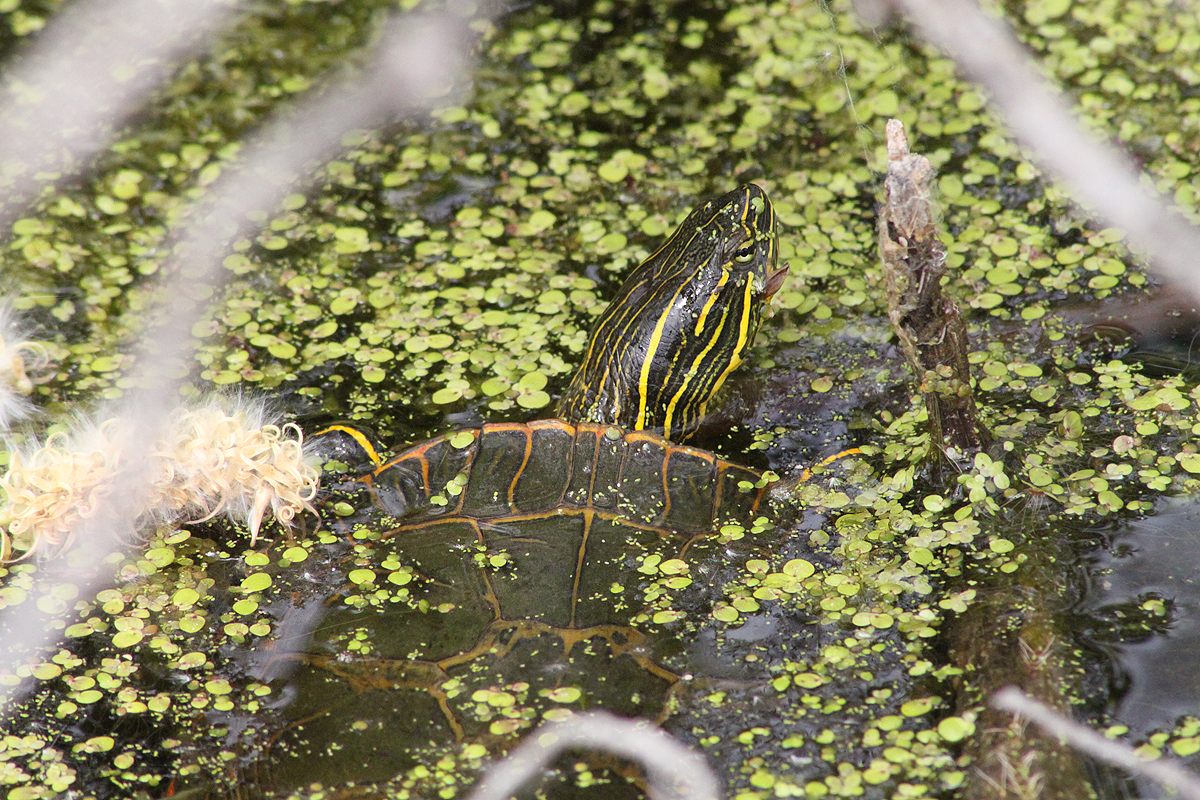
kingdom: Animalia
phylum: Chordata
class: Testudines
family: Emydidae
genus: Chrysemys
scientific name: Chrysemys picta
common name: Painted turtle
